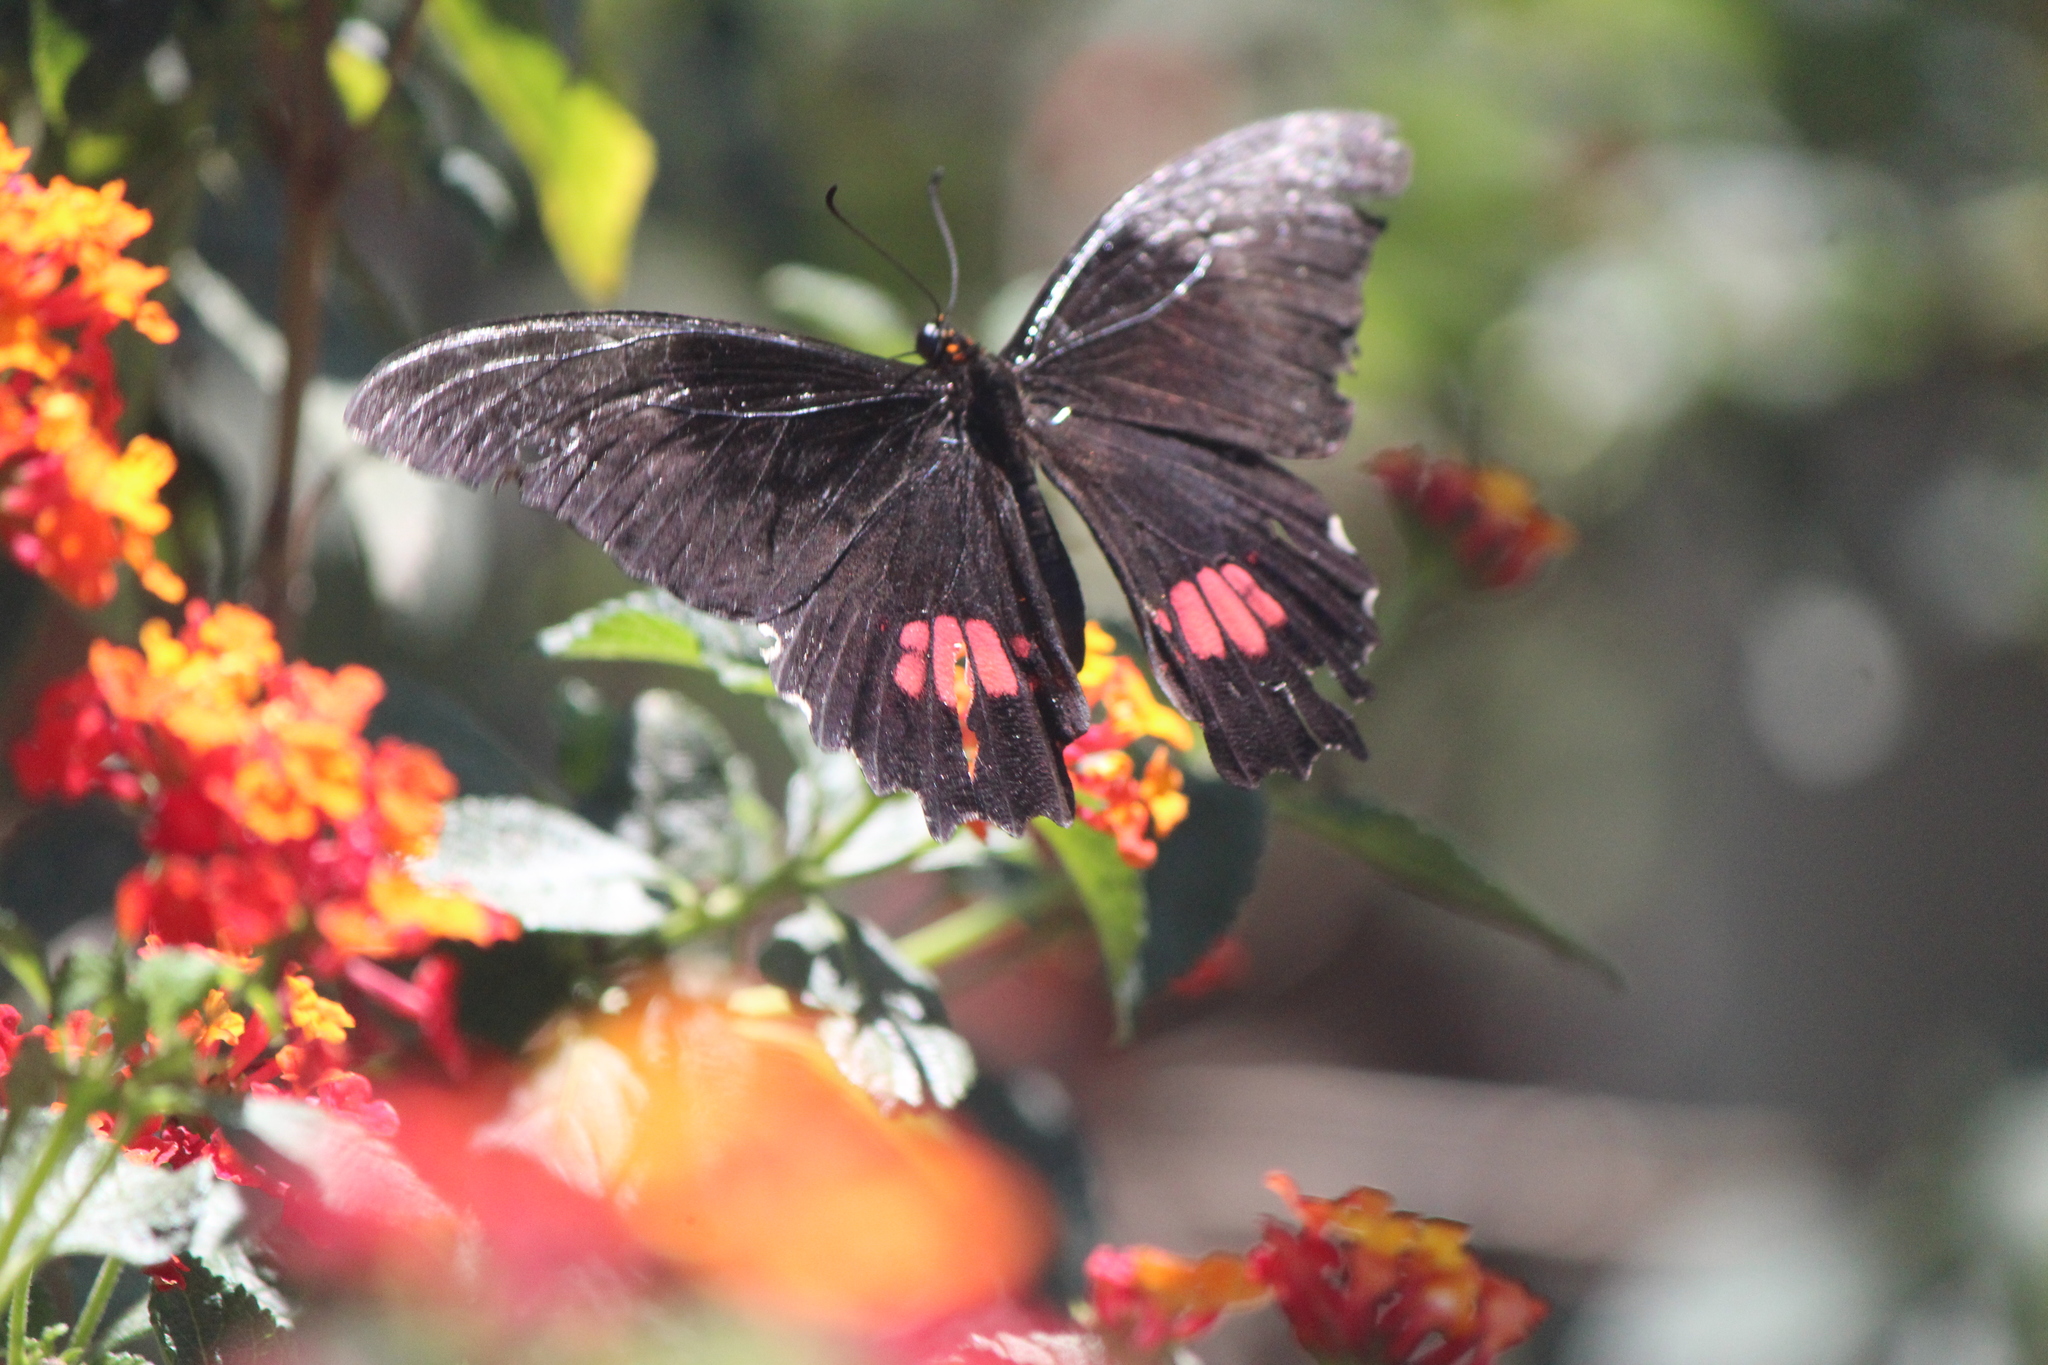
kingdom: Animalia
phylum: Arthropoda
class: Insecta
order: Lepidoptera
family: Papilionidae
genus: Papilio
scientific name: Papilio anchisiades
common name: Idaes swallowtail
